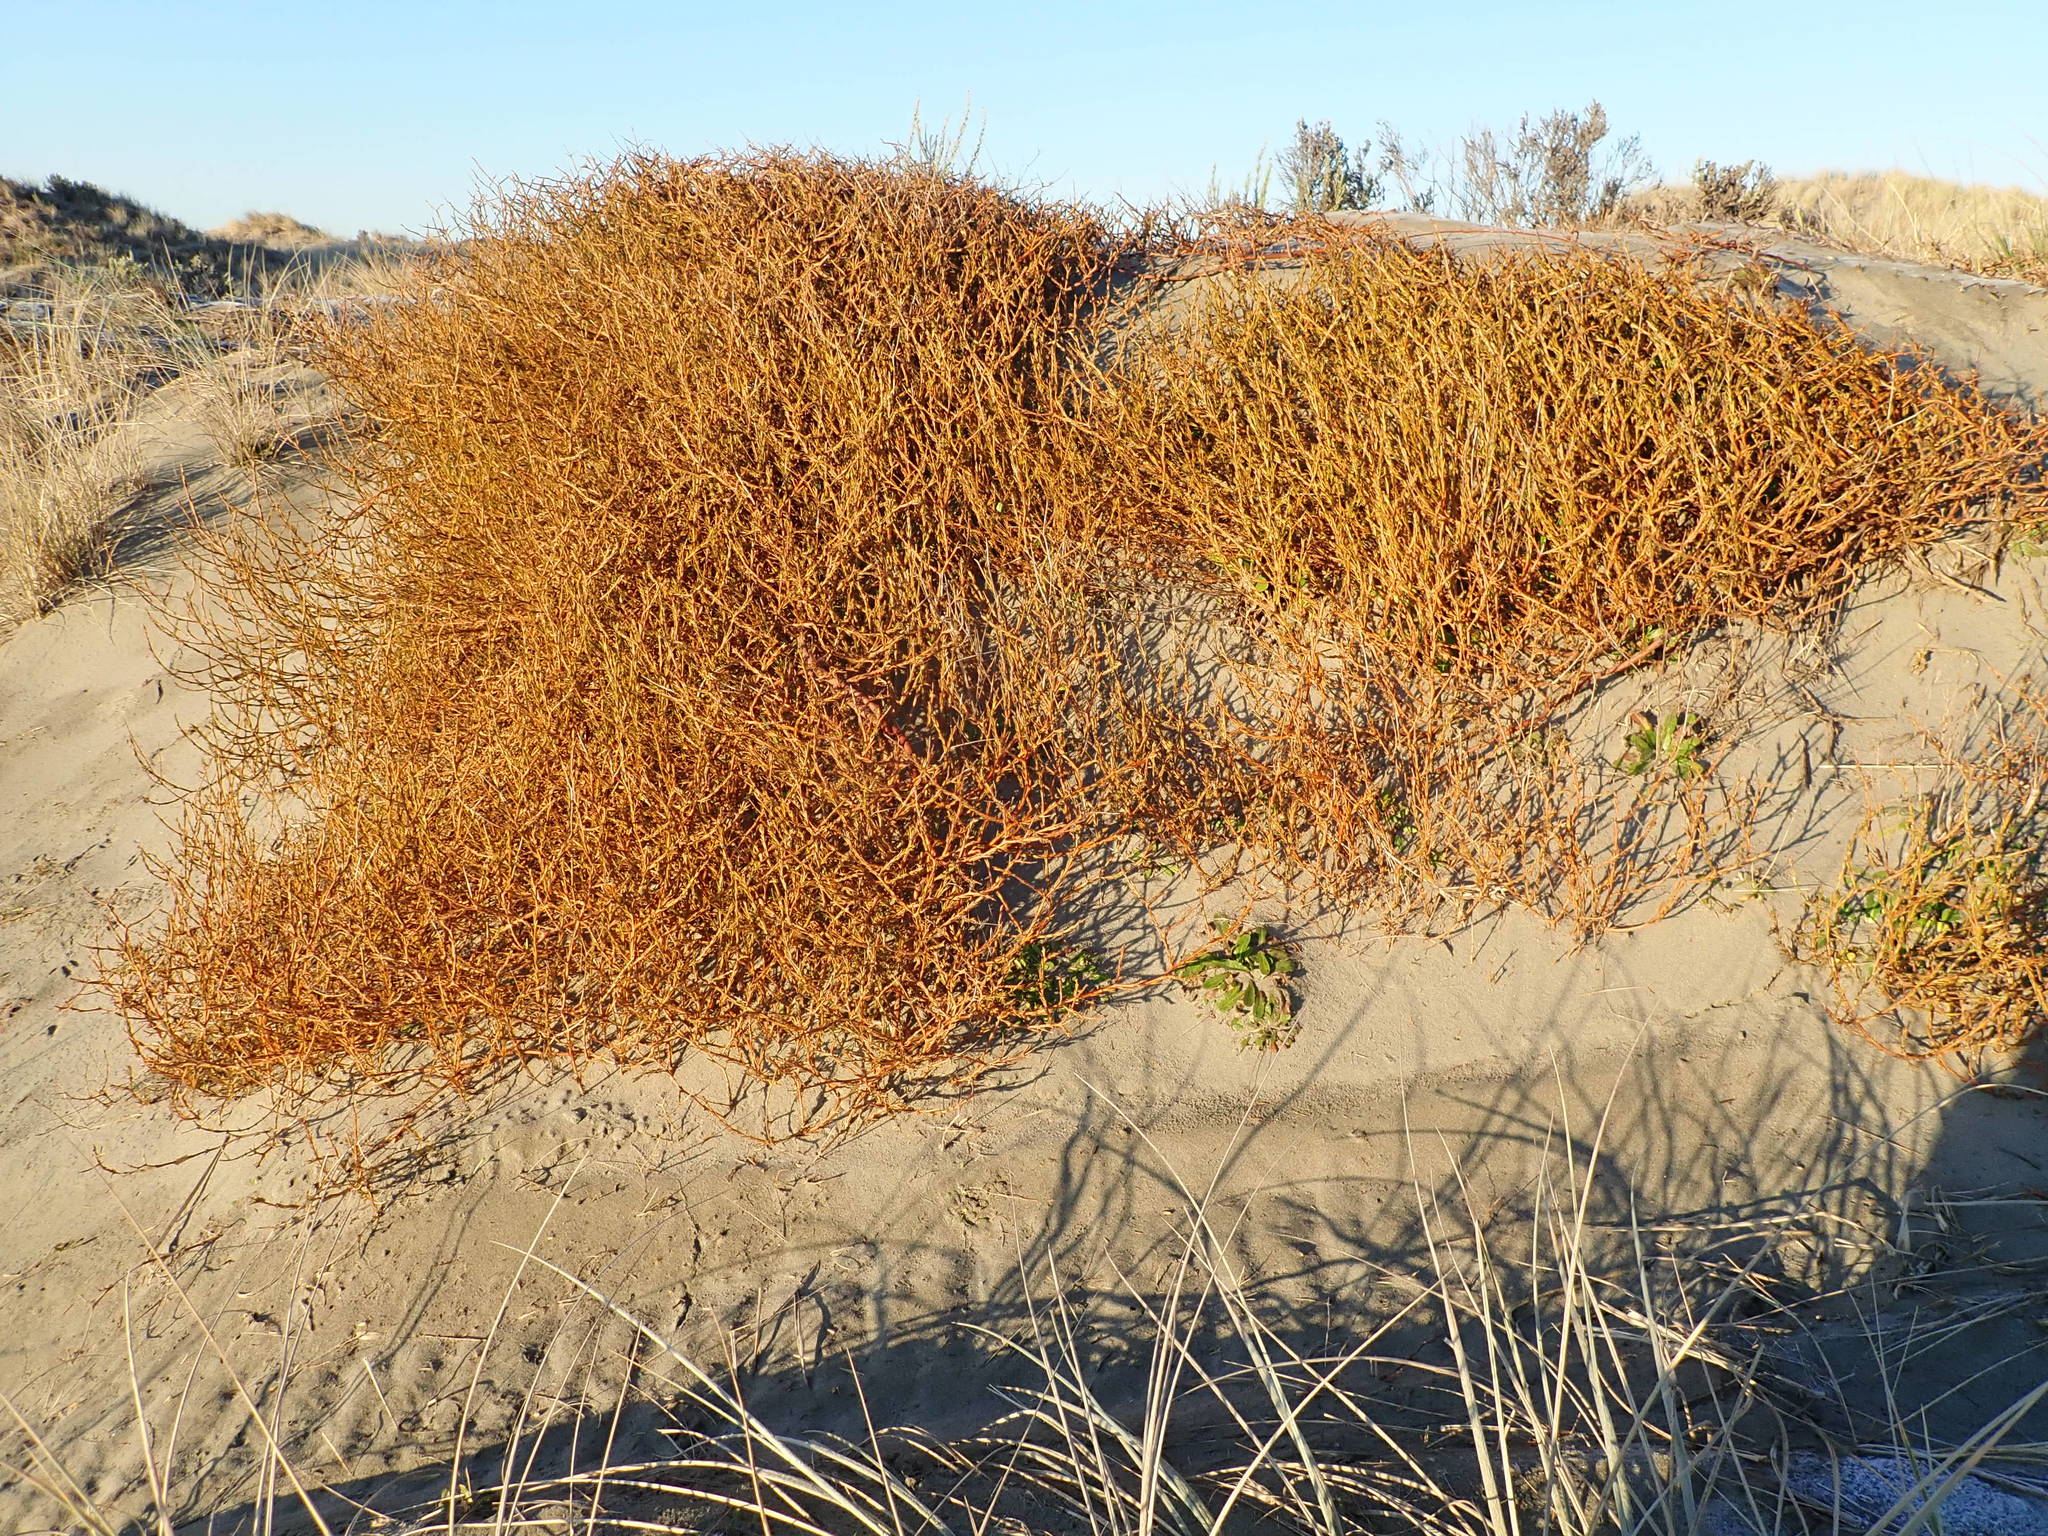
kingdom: Plantae
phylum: Tracheophyta
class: Magnoliopsida
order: Gentianales
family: Rubiaceae
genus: Coprosma
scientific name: Coprosma acerosa
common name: Sand coprosma
